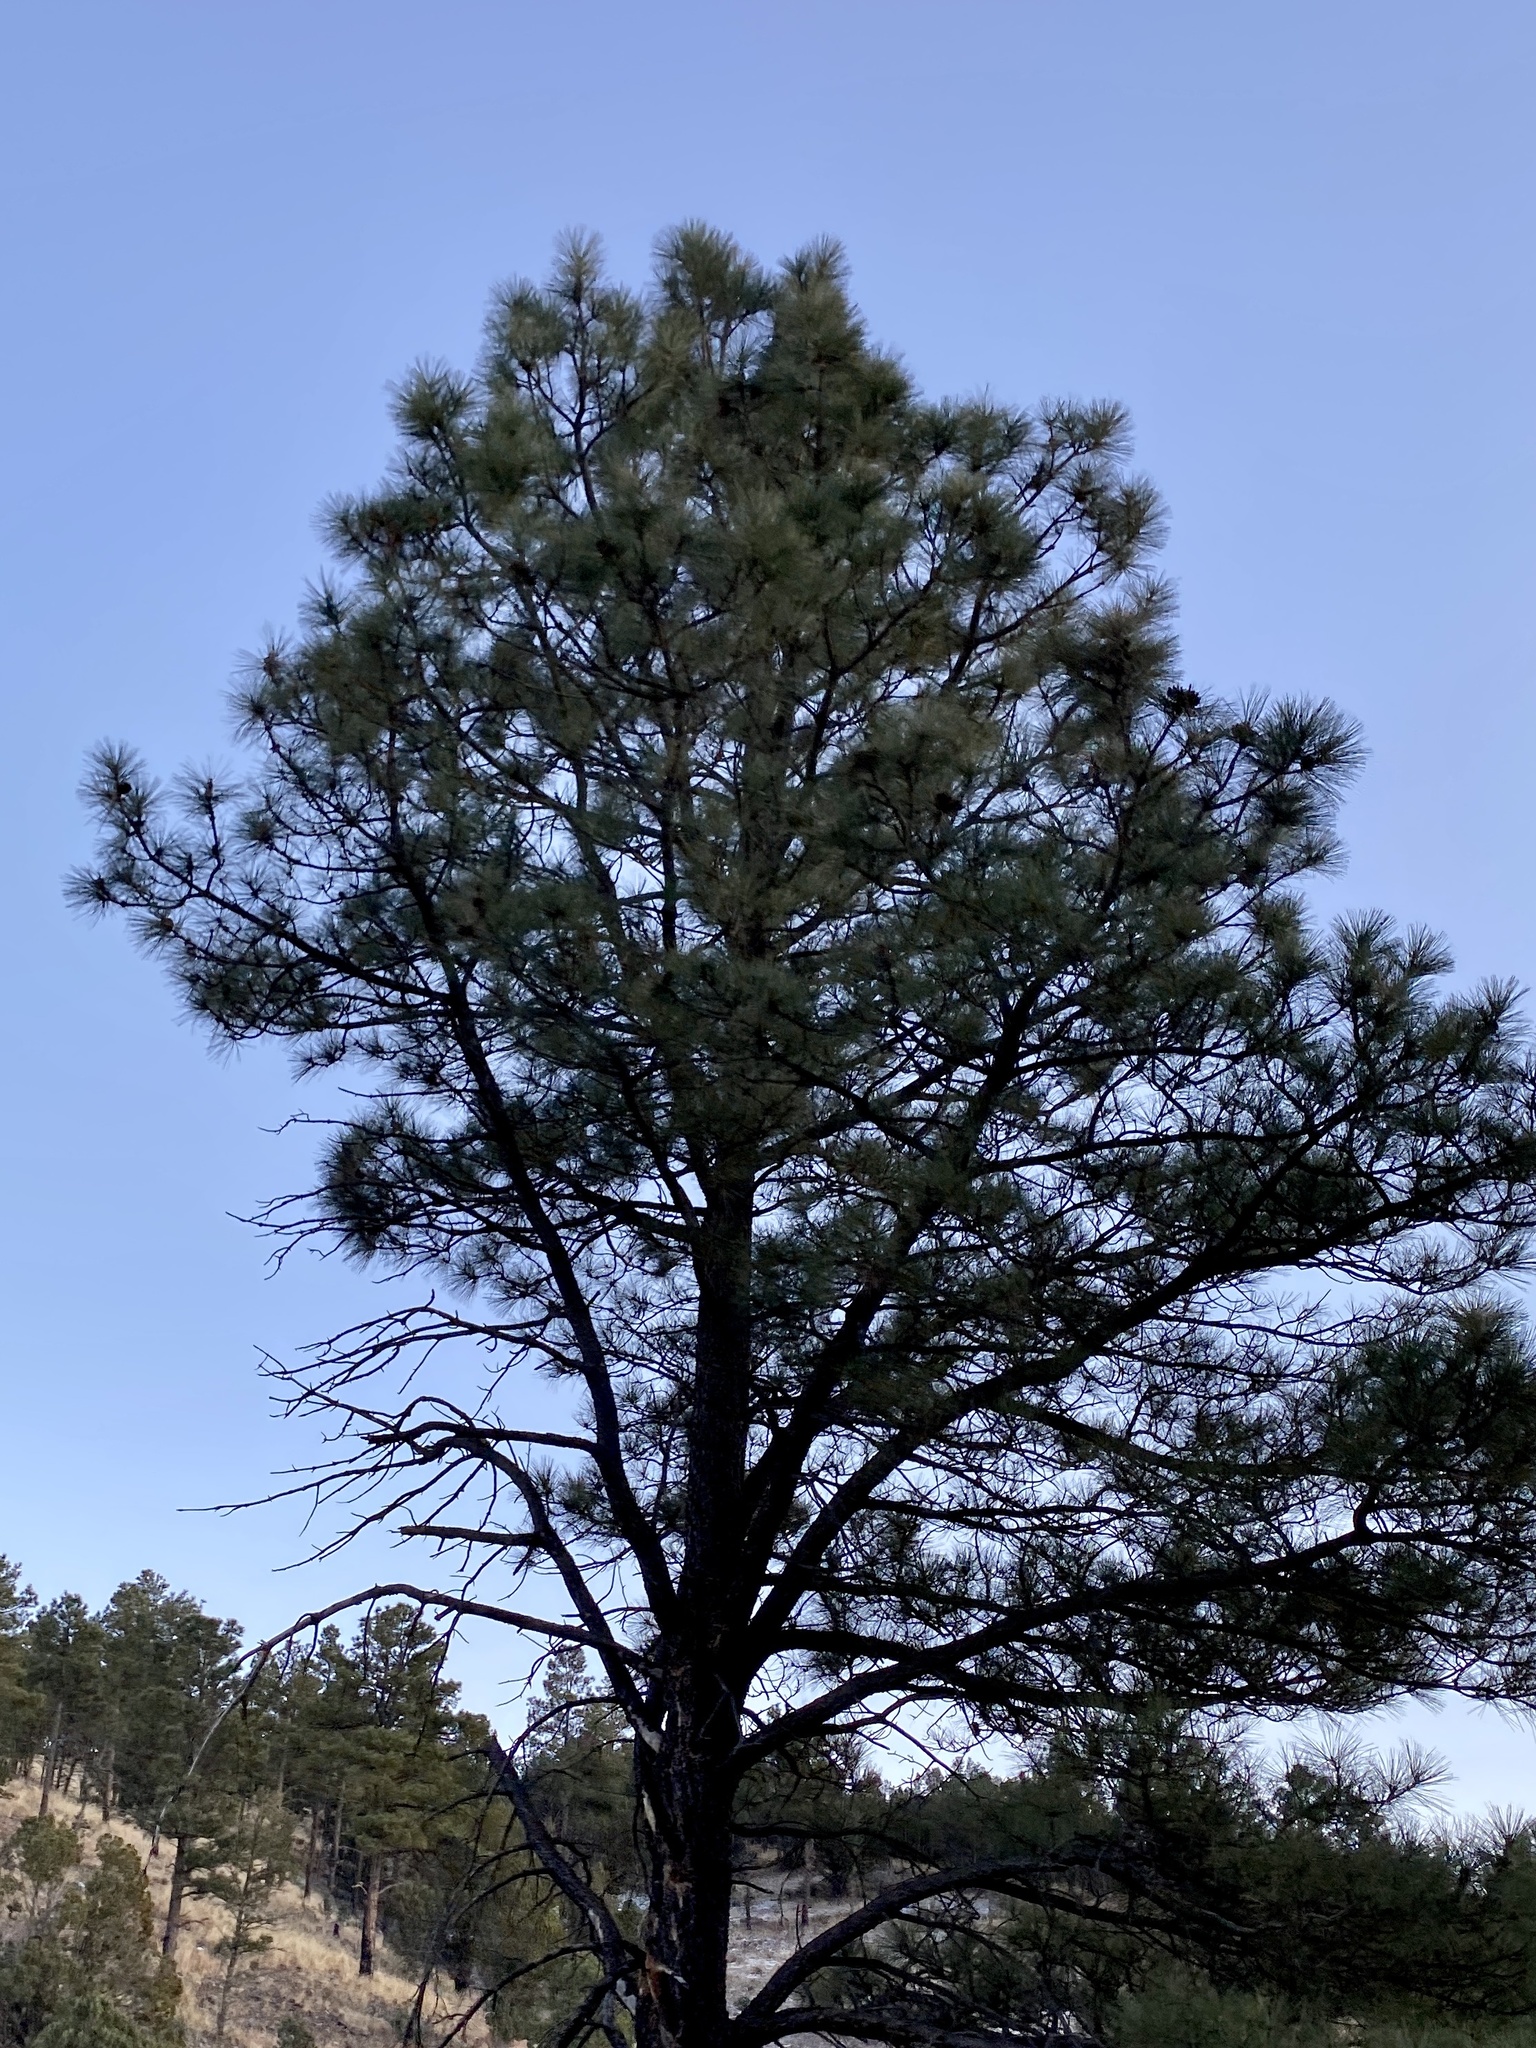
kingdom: Plantae
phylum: Tracheophyta
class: Pinopsida
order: Pinales
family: Pinaceae
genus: Pinus
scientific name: Pinus ponderosa
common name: Western yellow-pine
